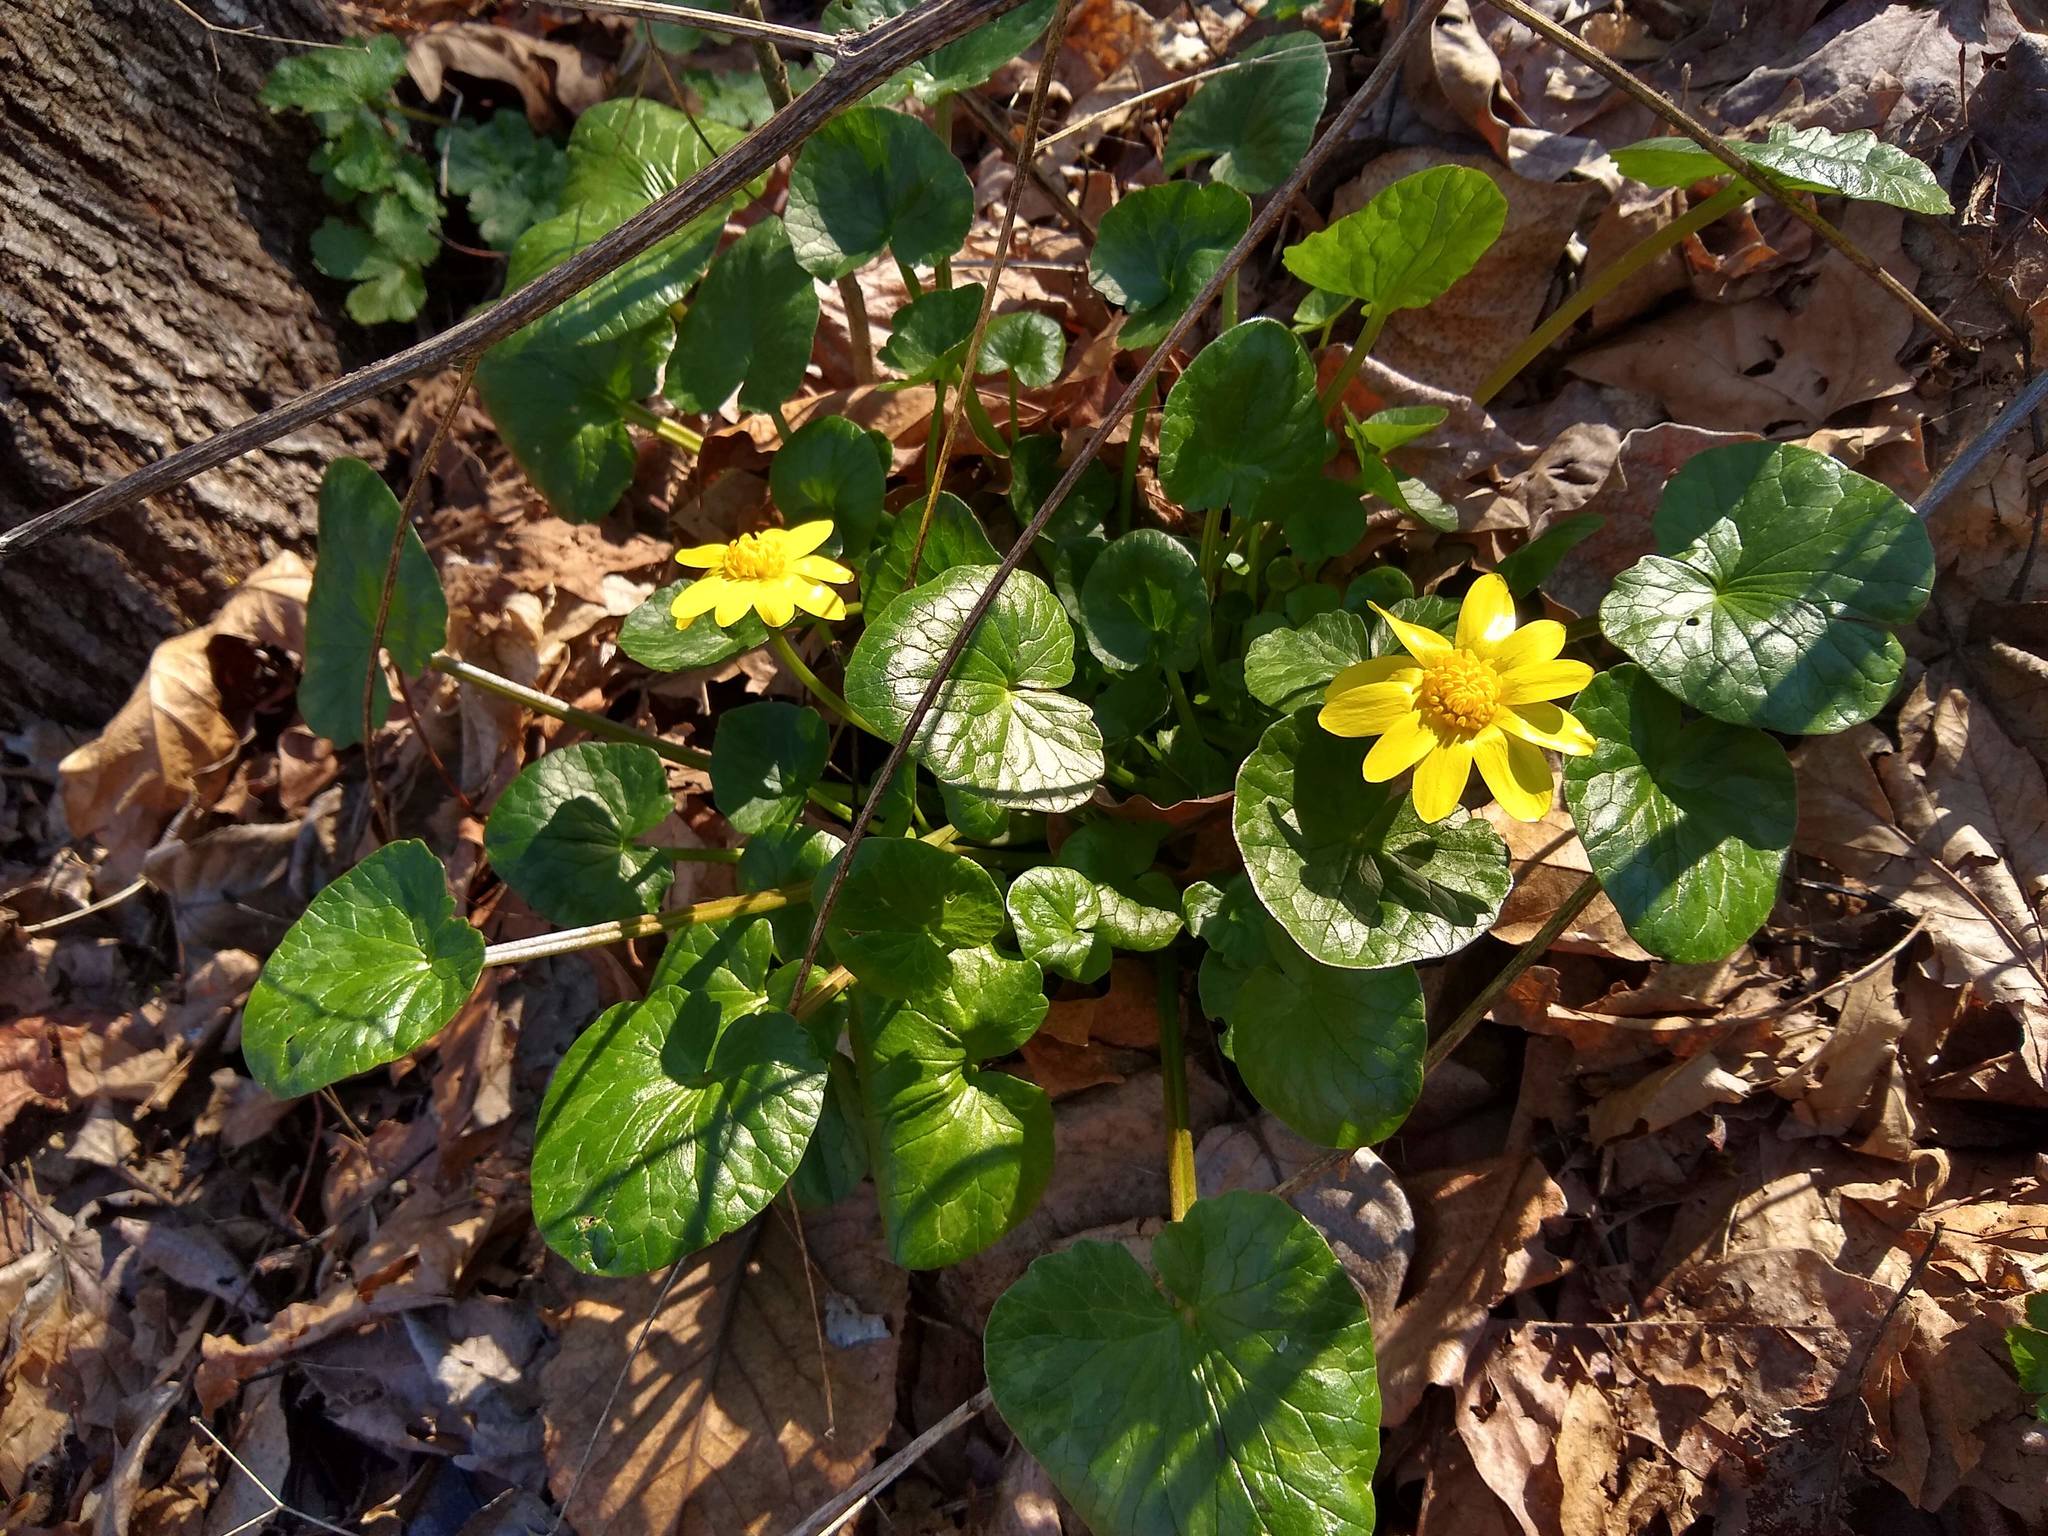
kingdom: Plantae
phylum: Tracheophyta
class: Magnoliopsida
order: Ranunculales
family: Ranunculaceae
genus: Ficaria
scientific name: Ficaria verna
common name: Lesser celandine
